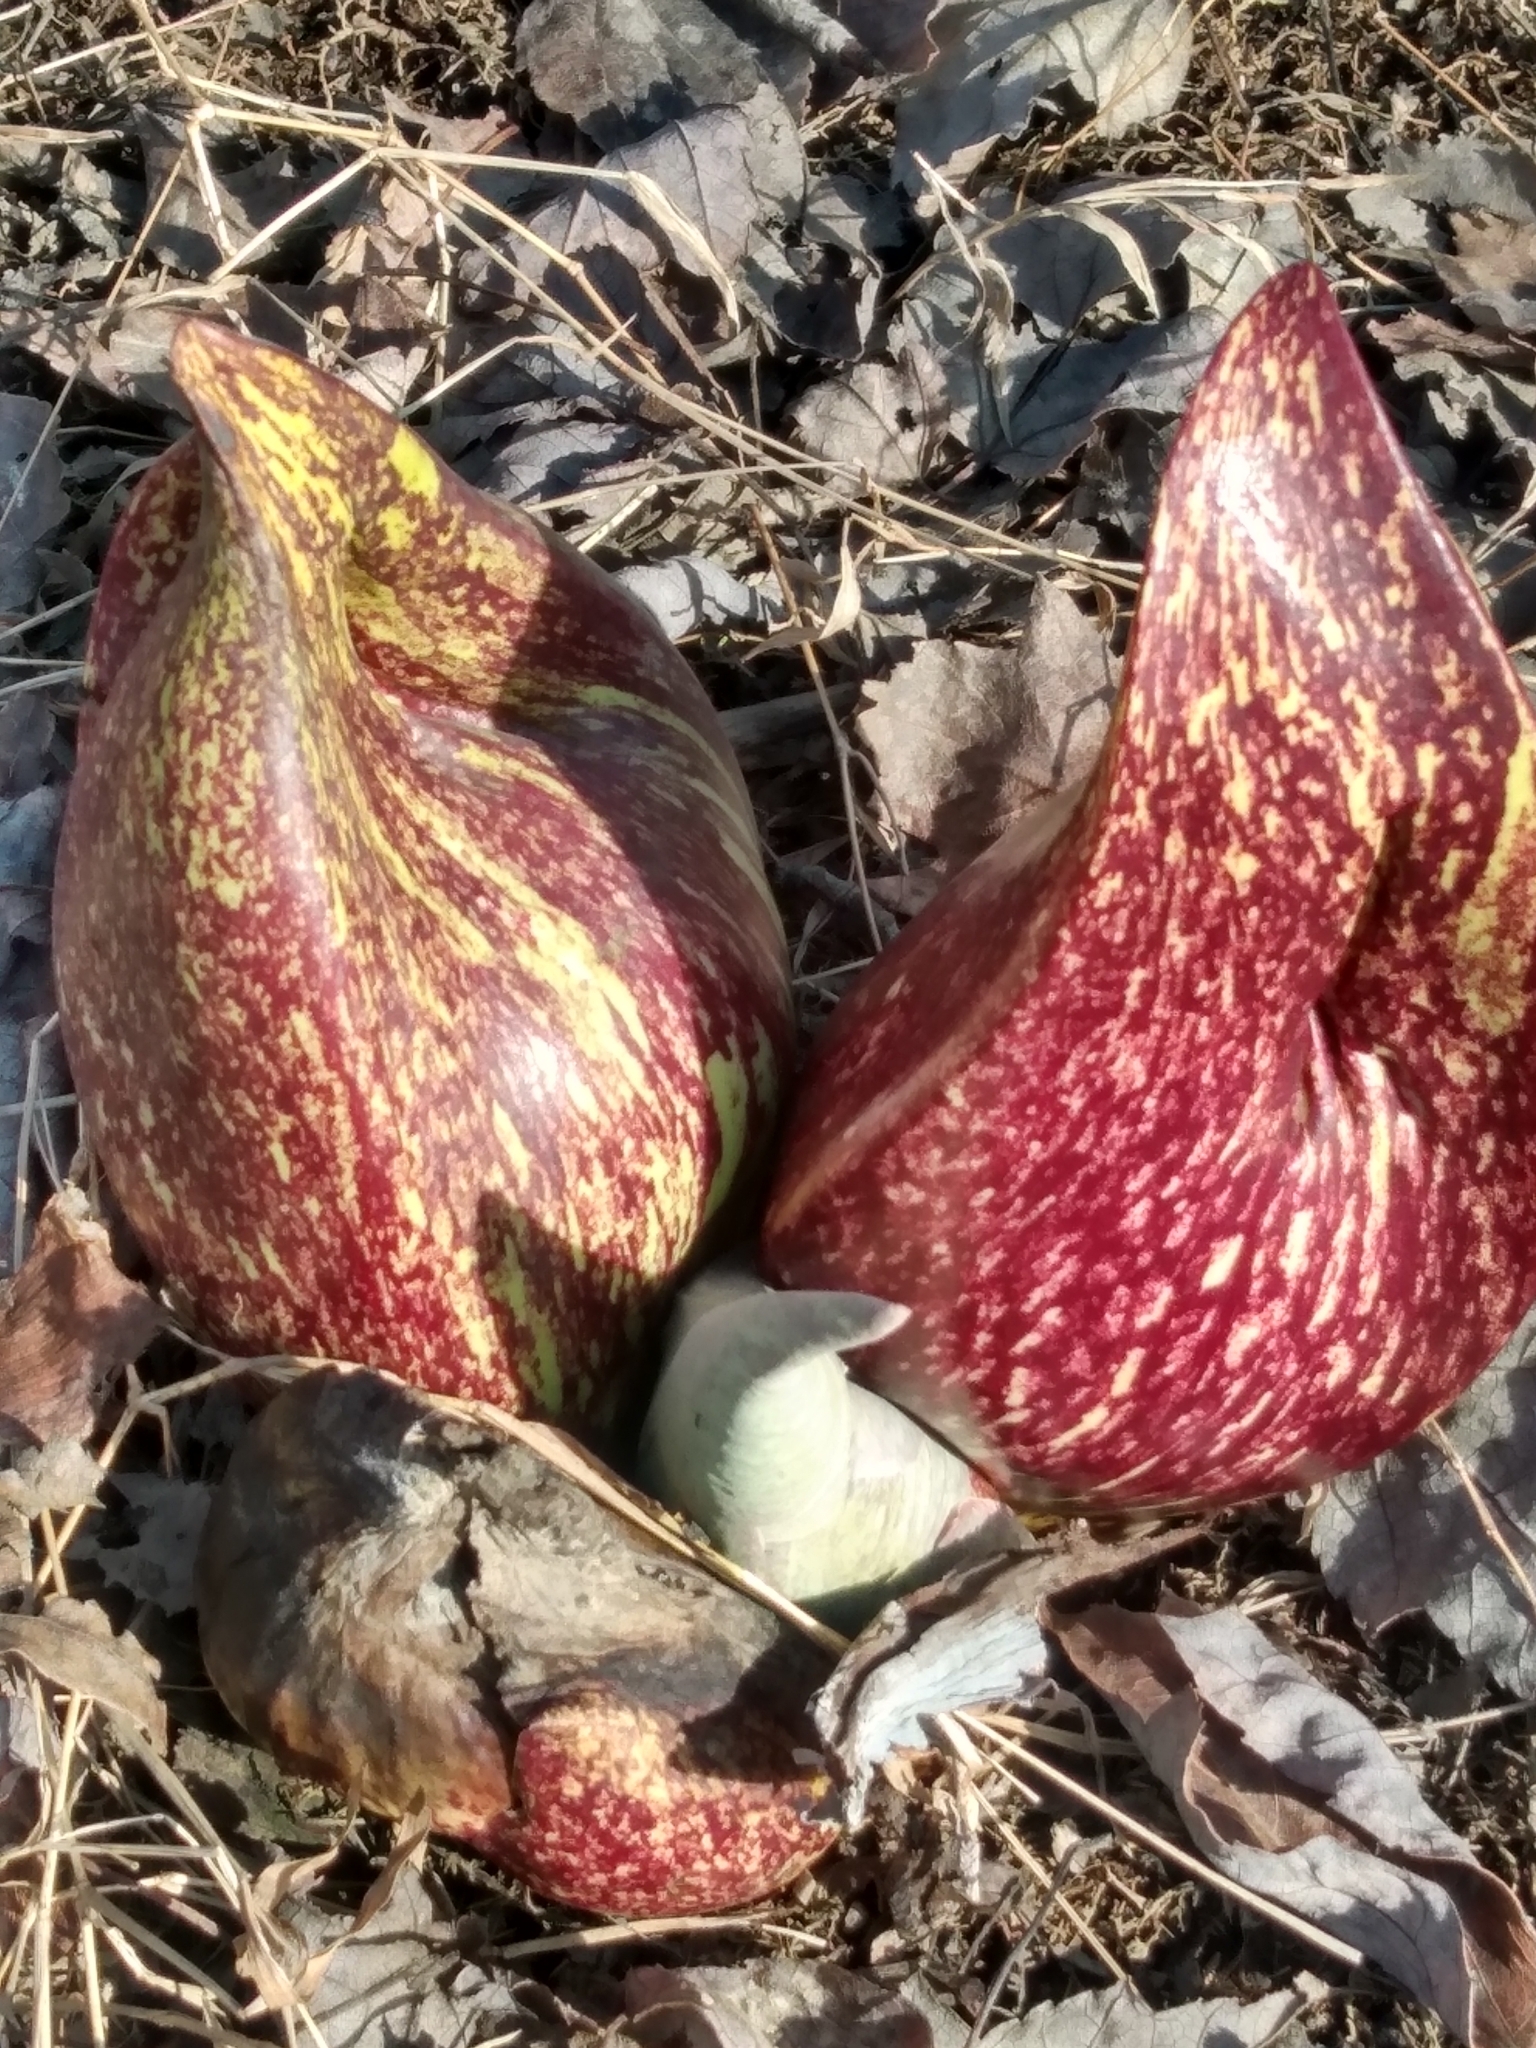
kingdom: Plantae
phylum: Tracheophyta
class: Liliopsida
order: Alismatales
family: Araceae
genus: Symplocarpus
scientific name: Symplocarpus foetidus
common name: Eastern skunk cabbage
